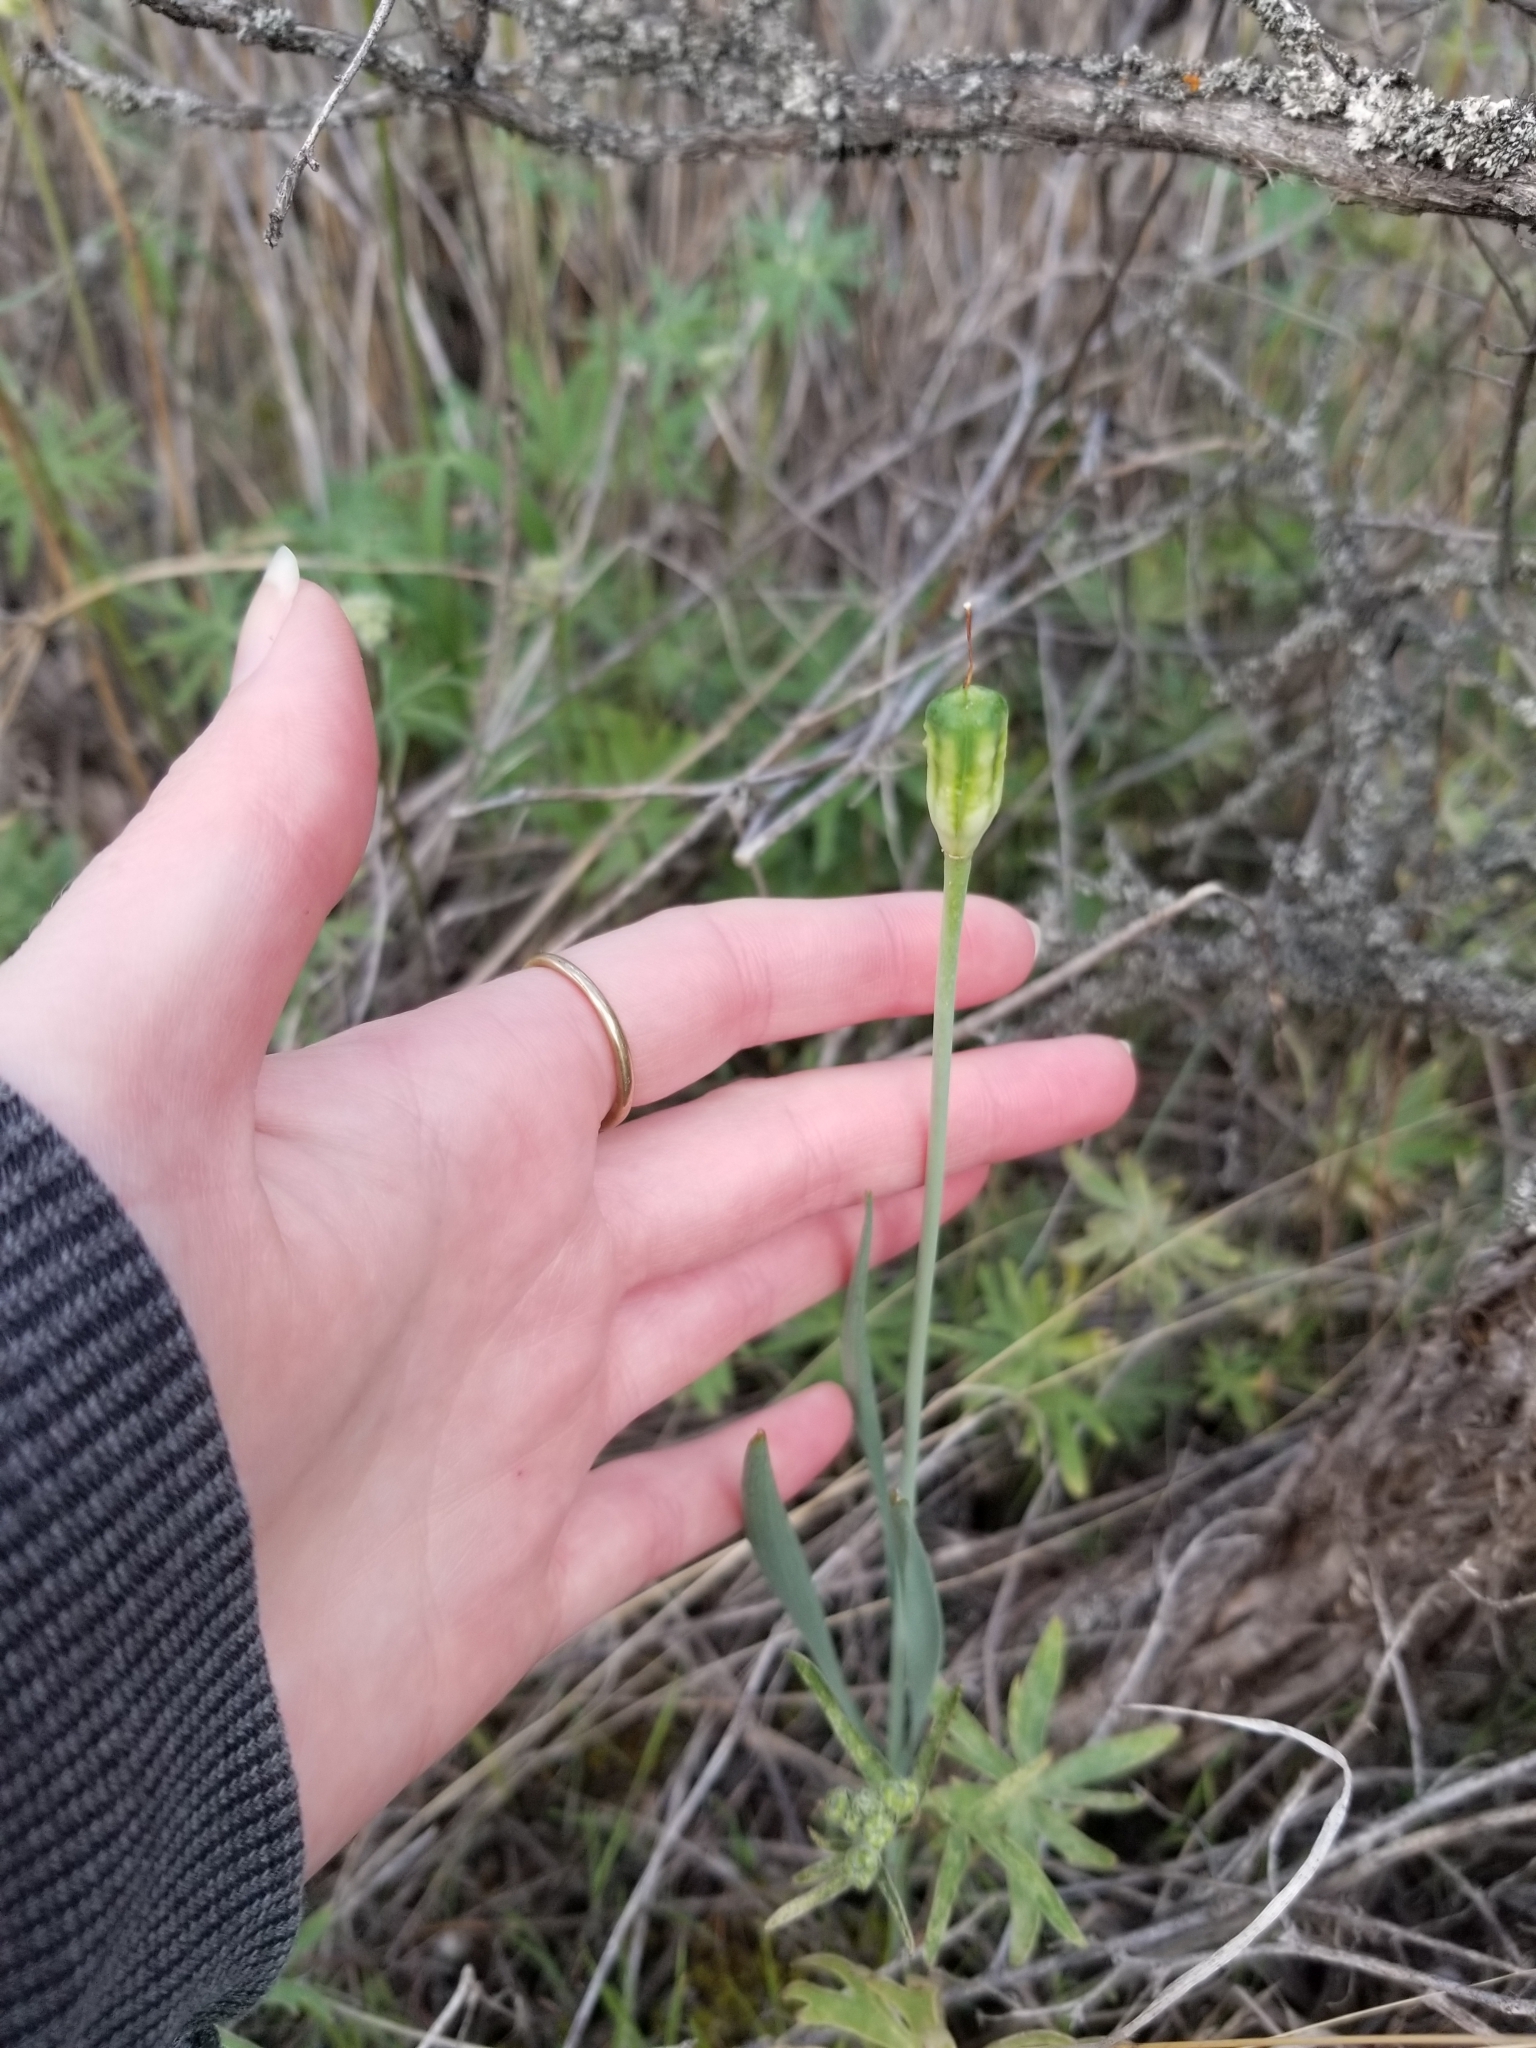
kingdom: Plantae
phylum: Tracheophyta
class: Liliopsida
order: Liliales
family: Liliaceae
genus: Fritillaria
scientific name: Fritillaria pudica
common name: Yellow fritillary
